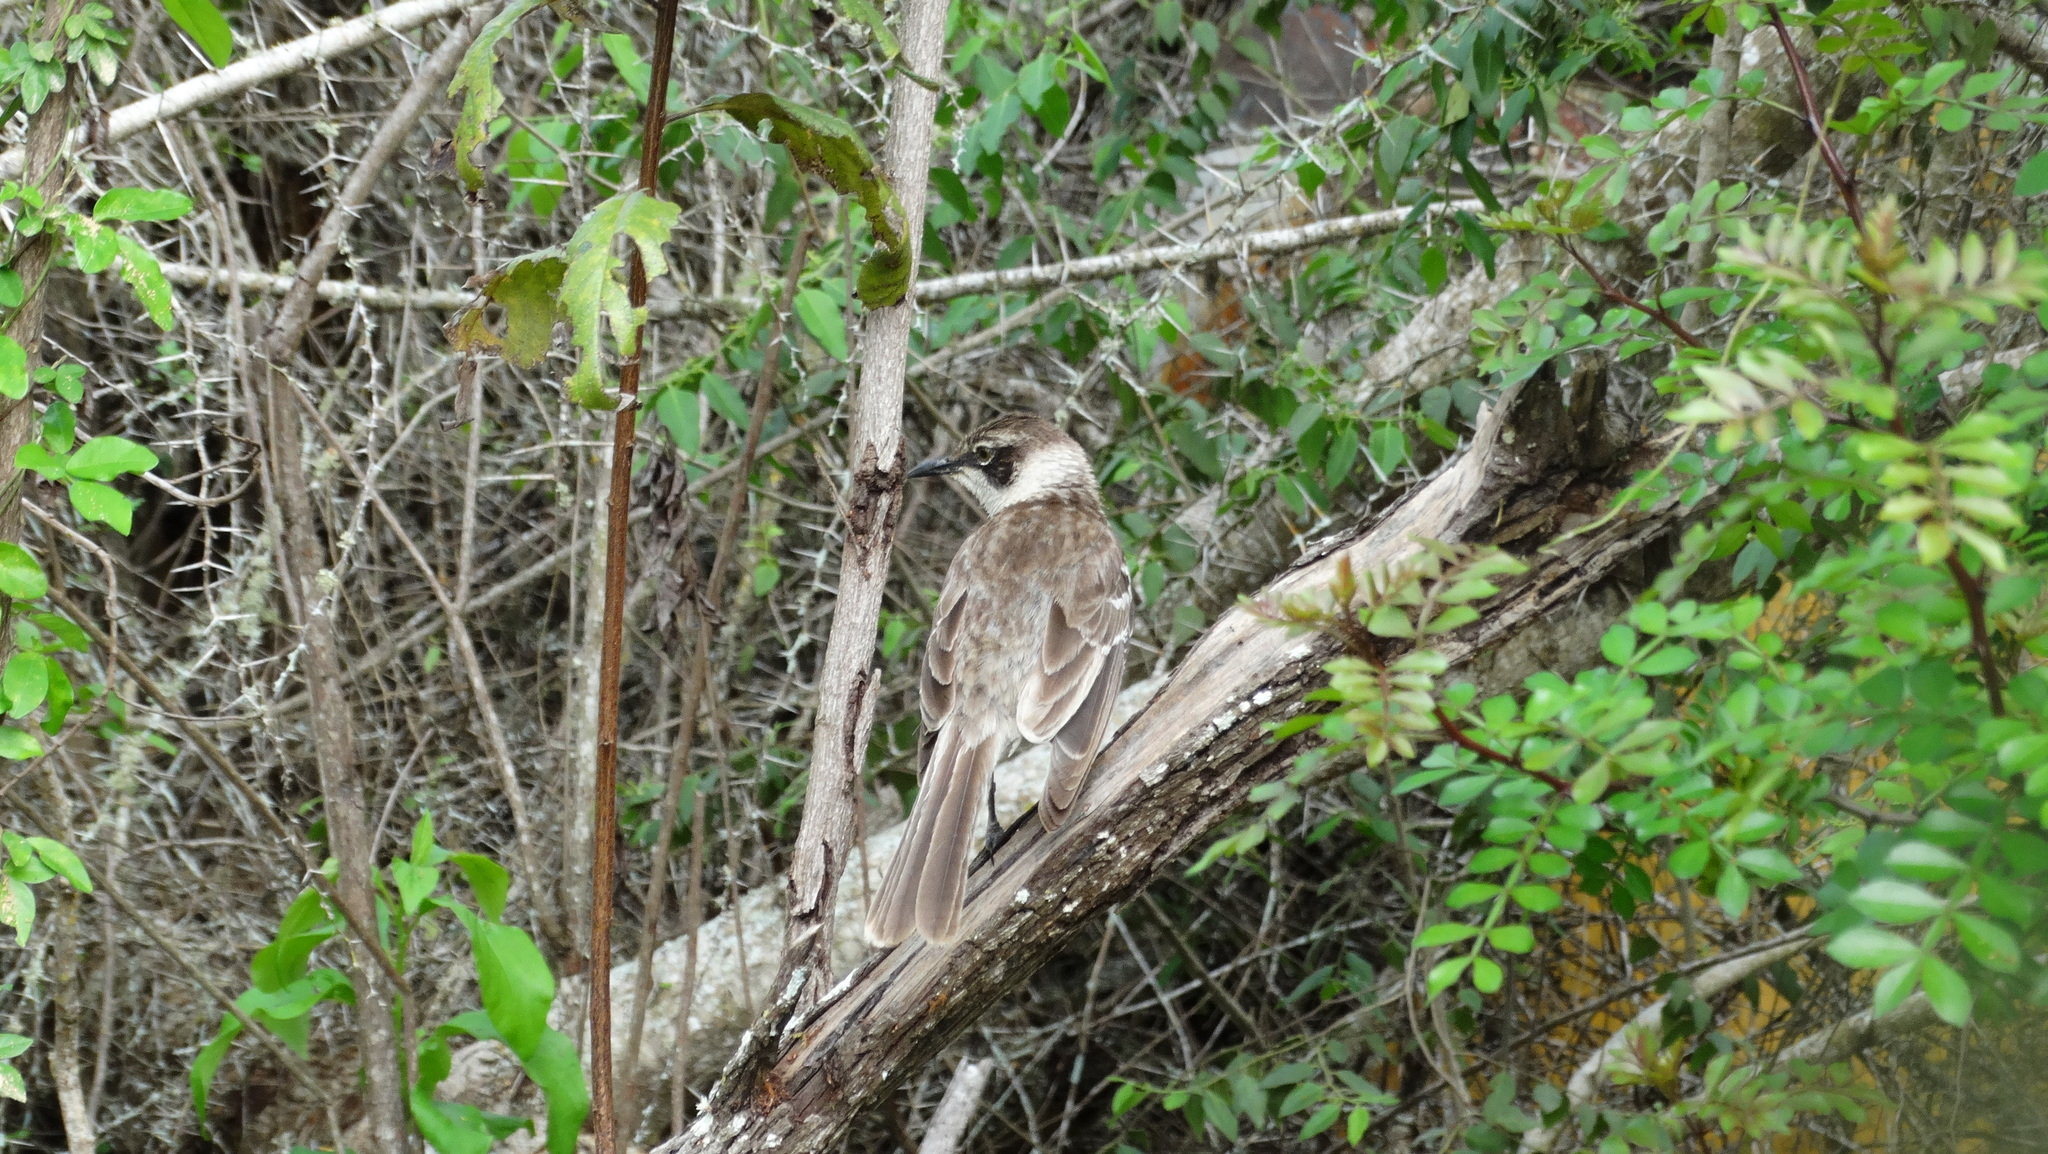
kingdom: Animalia
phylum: Chordata
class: Aves
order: Passeriformes
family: Mimidae
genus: Mimus
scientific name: Mimus parvulus
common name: Galapagos mockingbird
